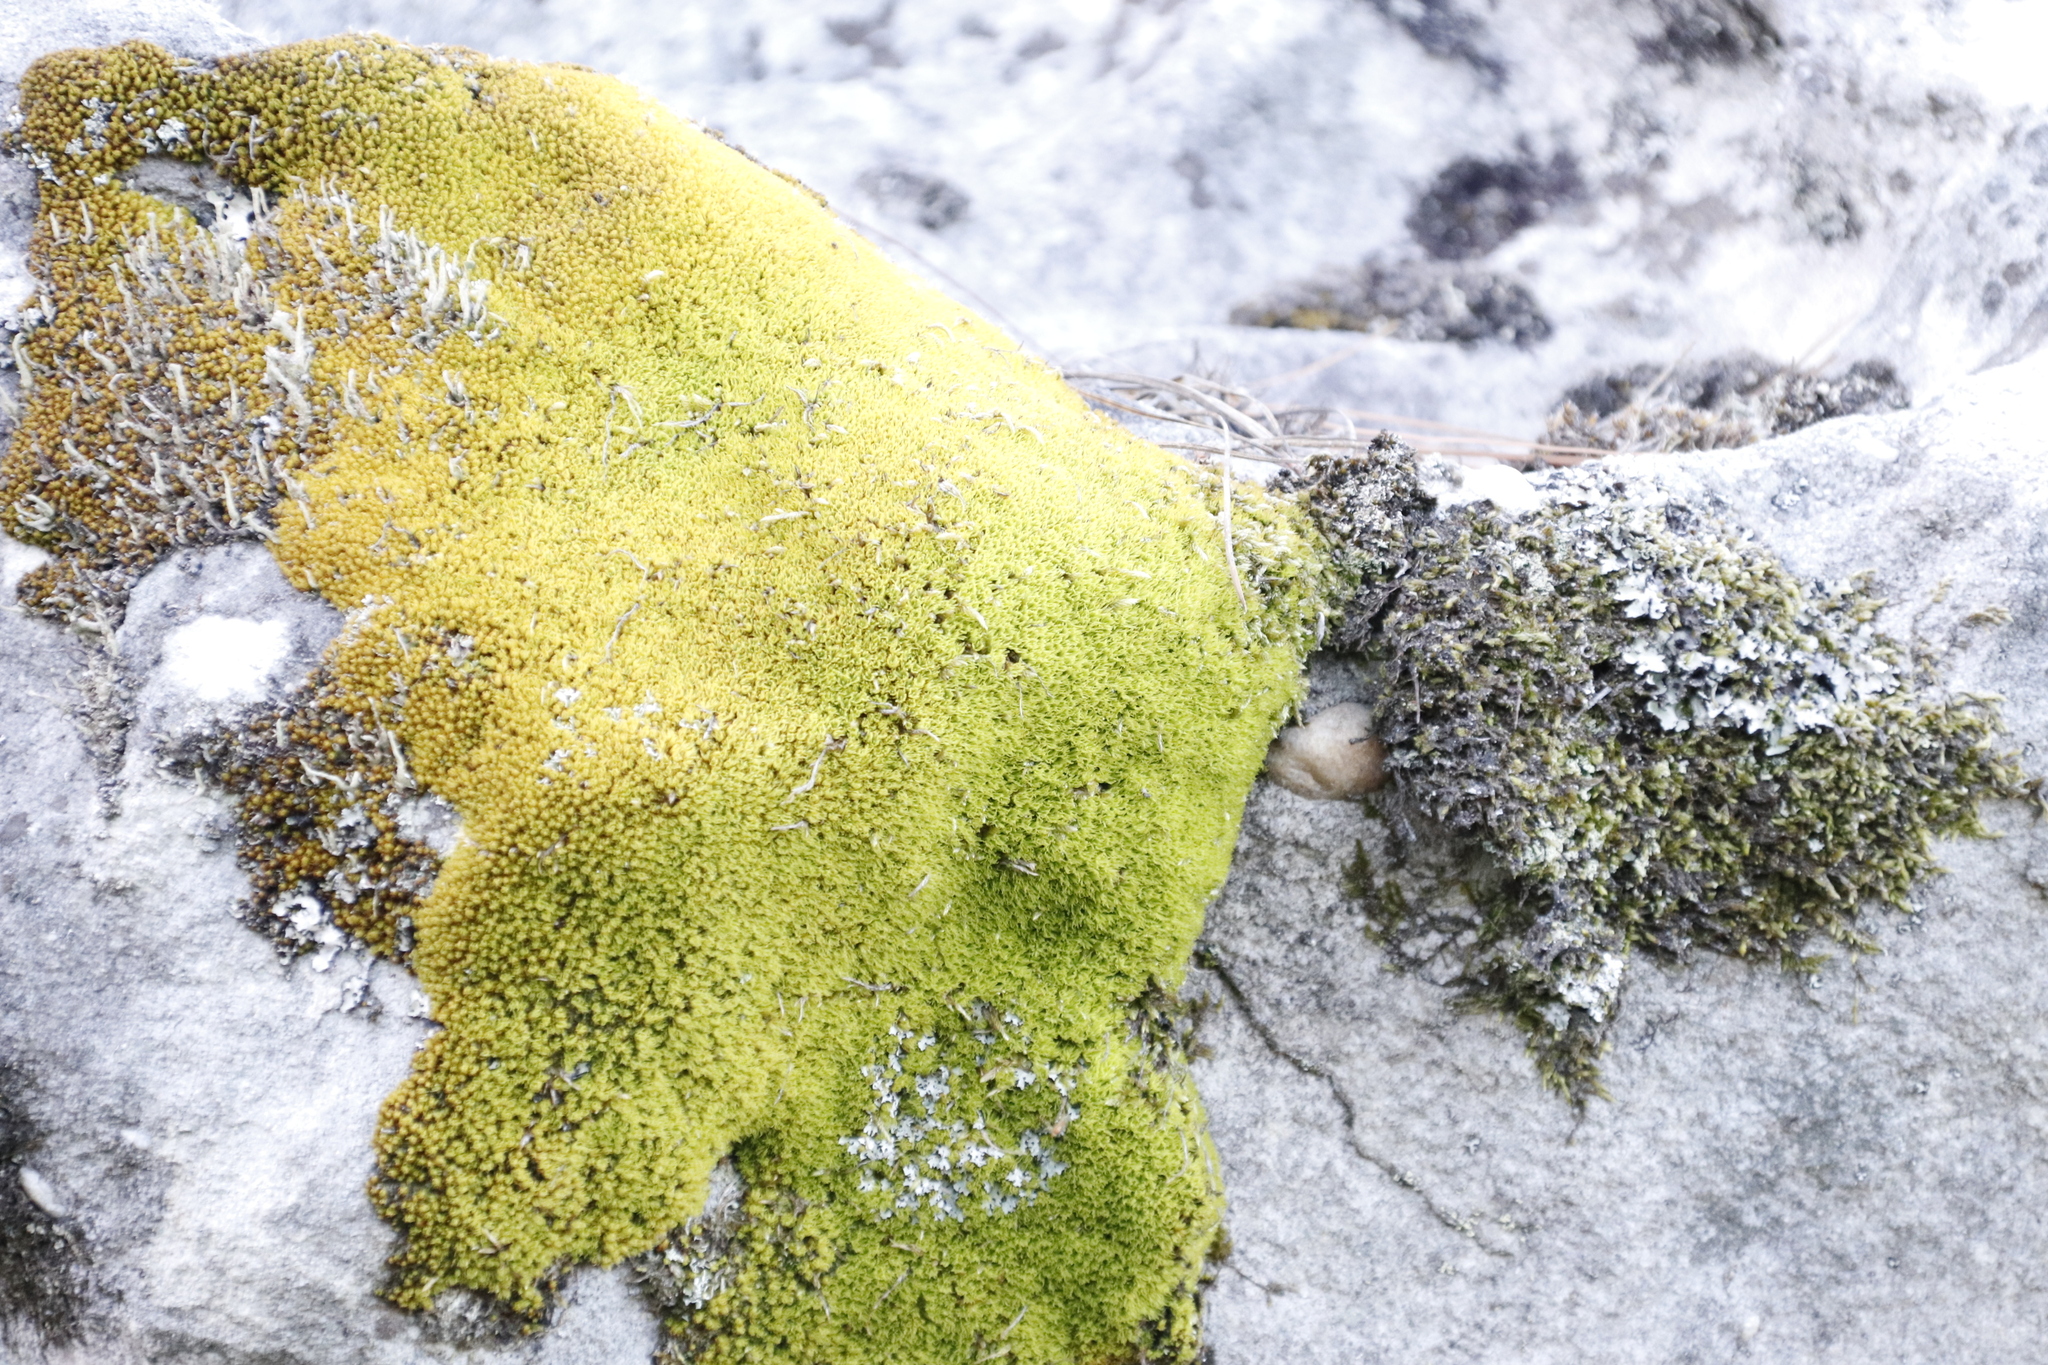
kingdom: Plantae
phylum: Bryophyta
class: Bryopsida
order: Dicranales
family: Hypodontiaceae
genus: Hypodontium
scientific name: Hypodontium pomiforme
